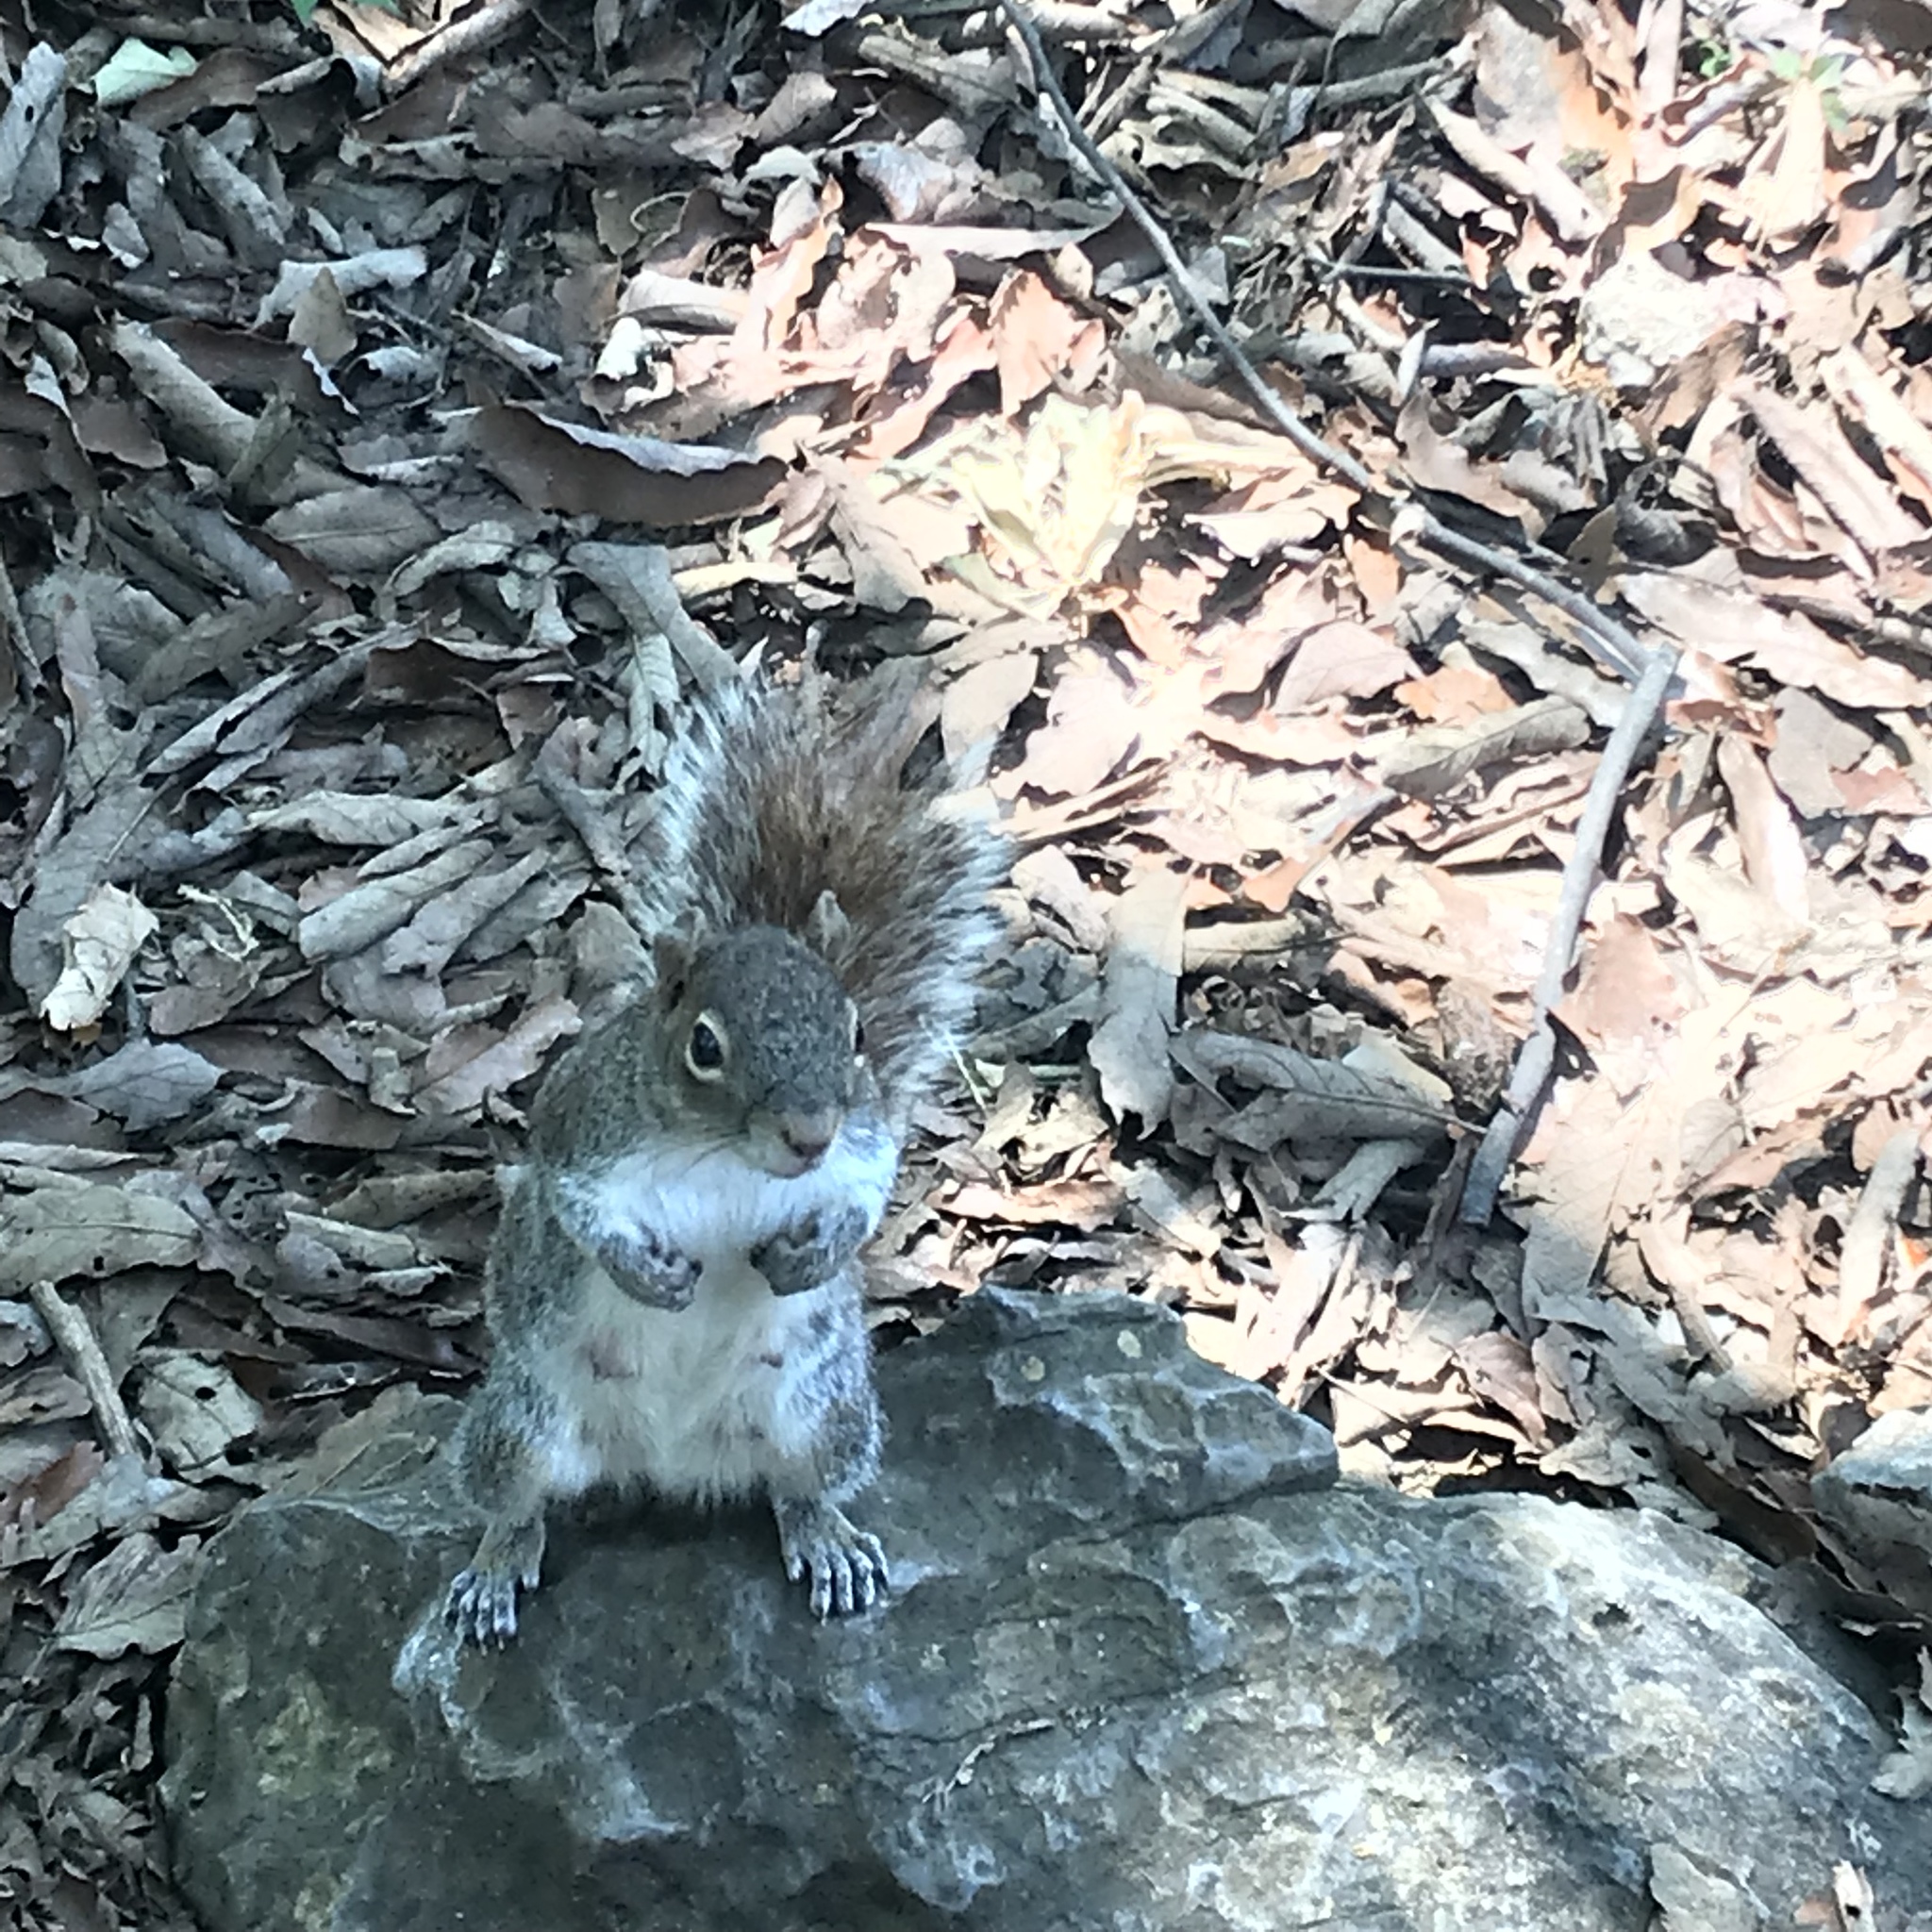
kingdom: Animalia
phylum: Chordata
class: Mammalia
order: Rodentia
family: Sciuridae
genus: Sciurus
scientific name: Sciurus alleni
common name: Allen's squirrel
